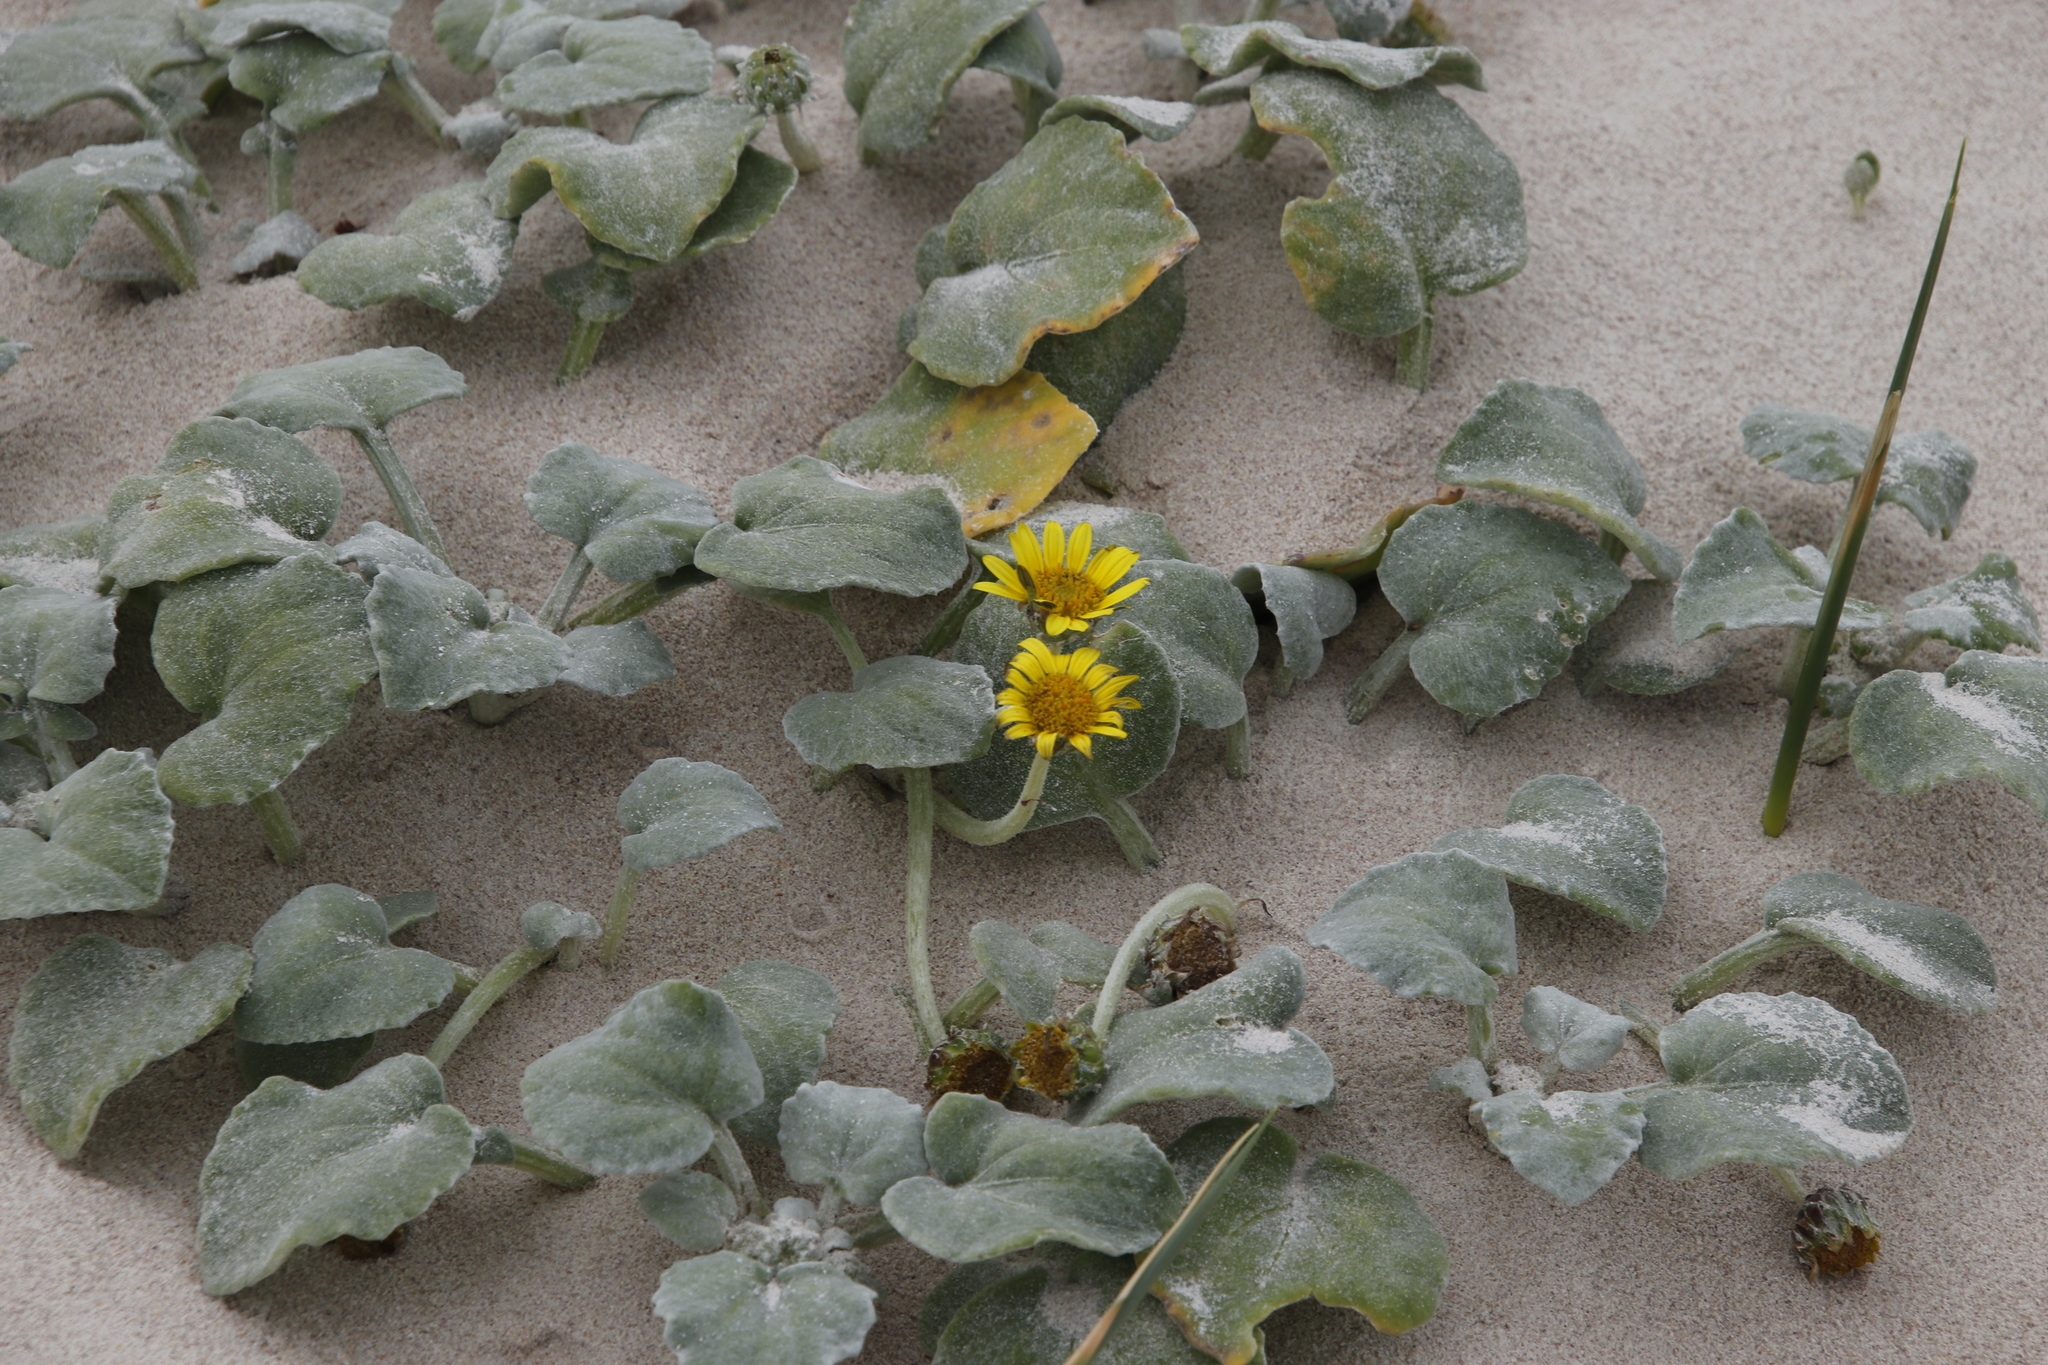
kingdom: Plantae
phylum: Tracheophyta
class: Magnoliopsida
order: Asterales
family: Asteraceae
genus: Arctotheca
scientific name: Arctotheca populifolia
